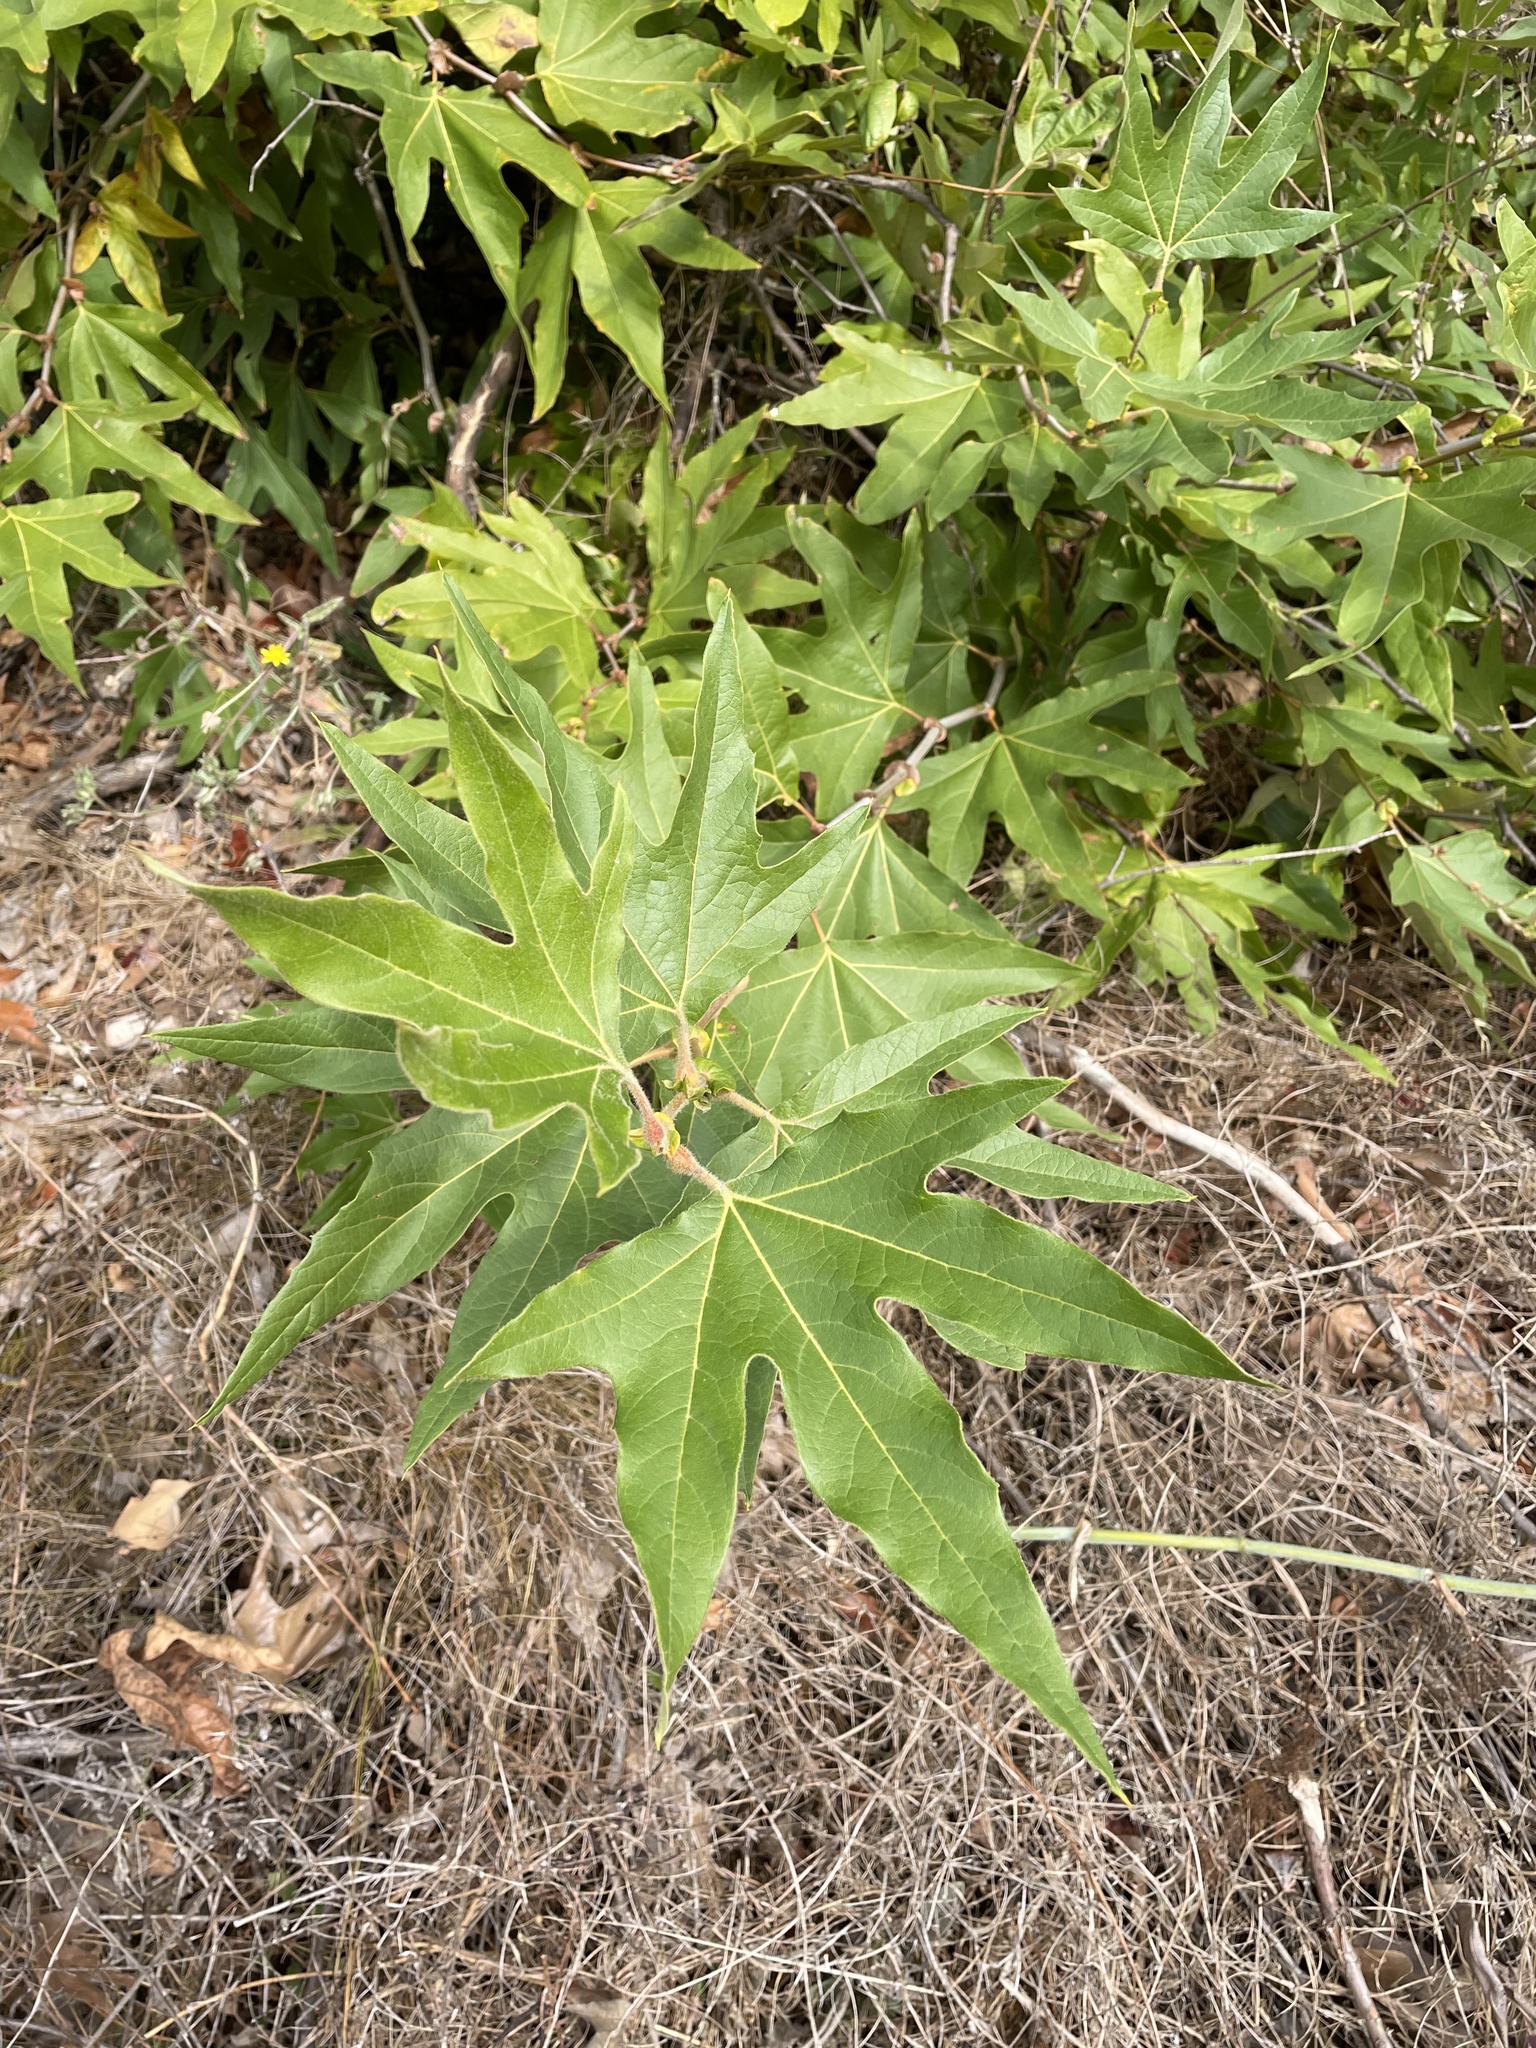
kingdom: Plantae
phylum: Tracheophyta
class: Magnoliopsida
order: Proteales
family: Platanaceae
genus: Platanus
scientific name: Platanus racemosa
